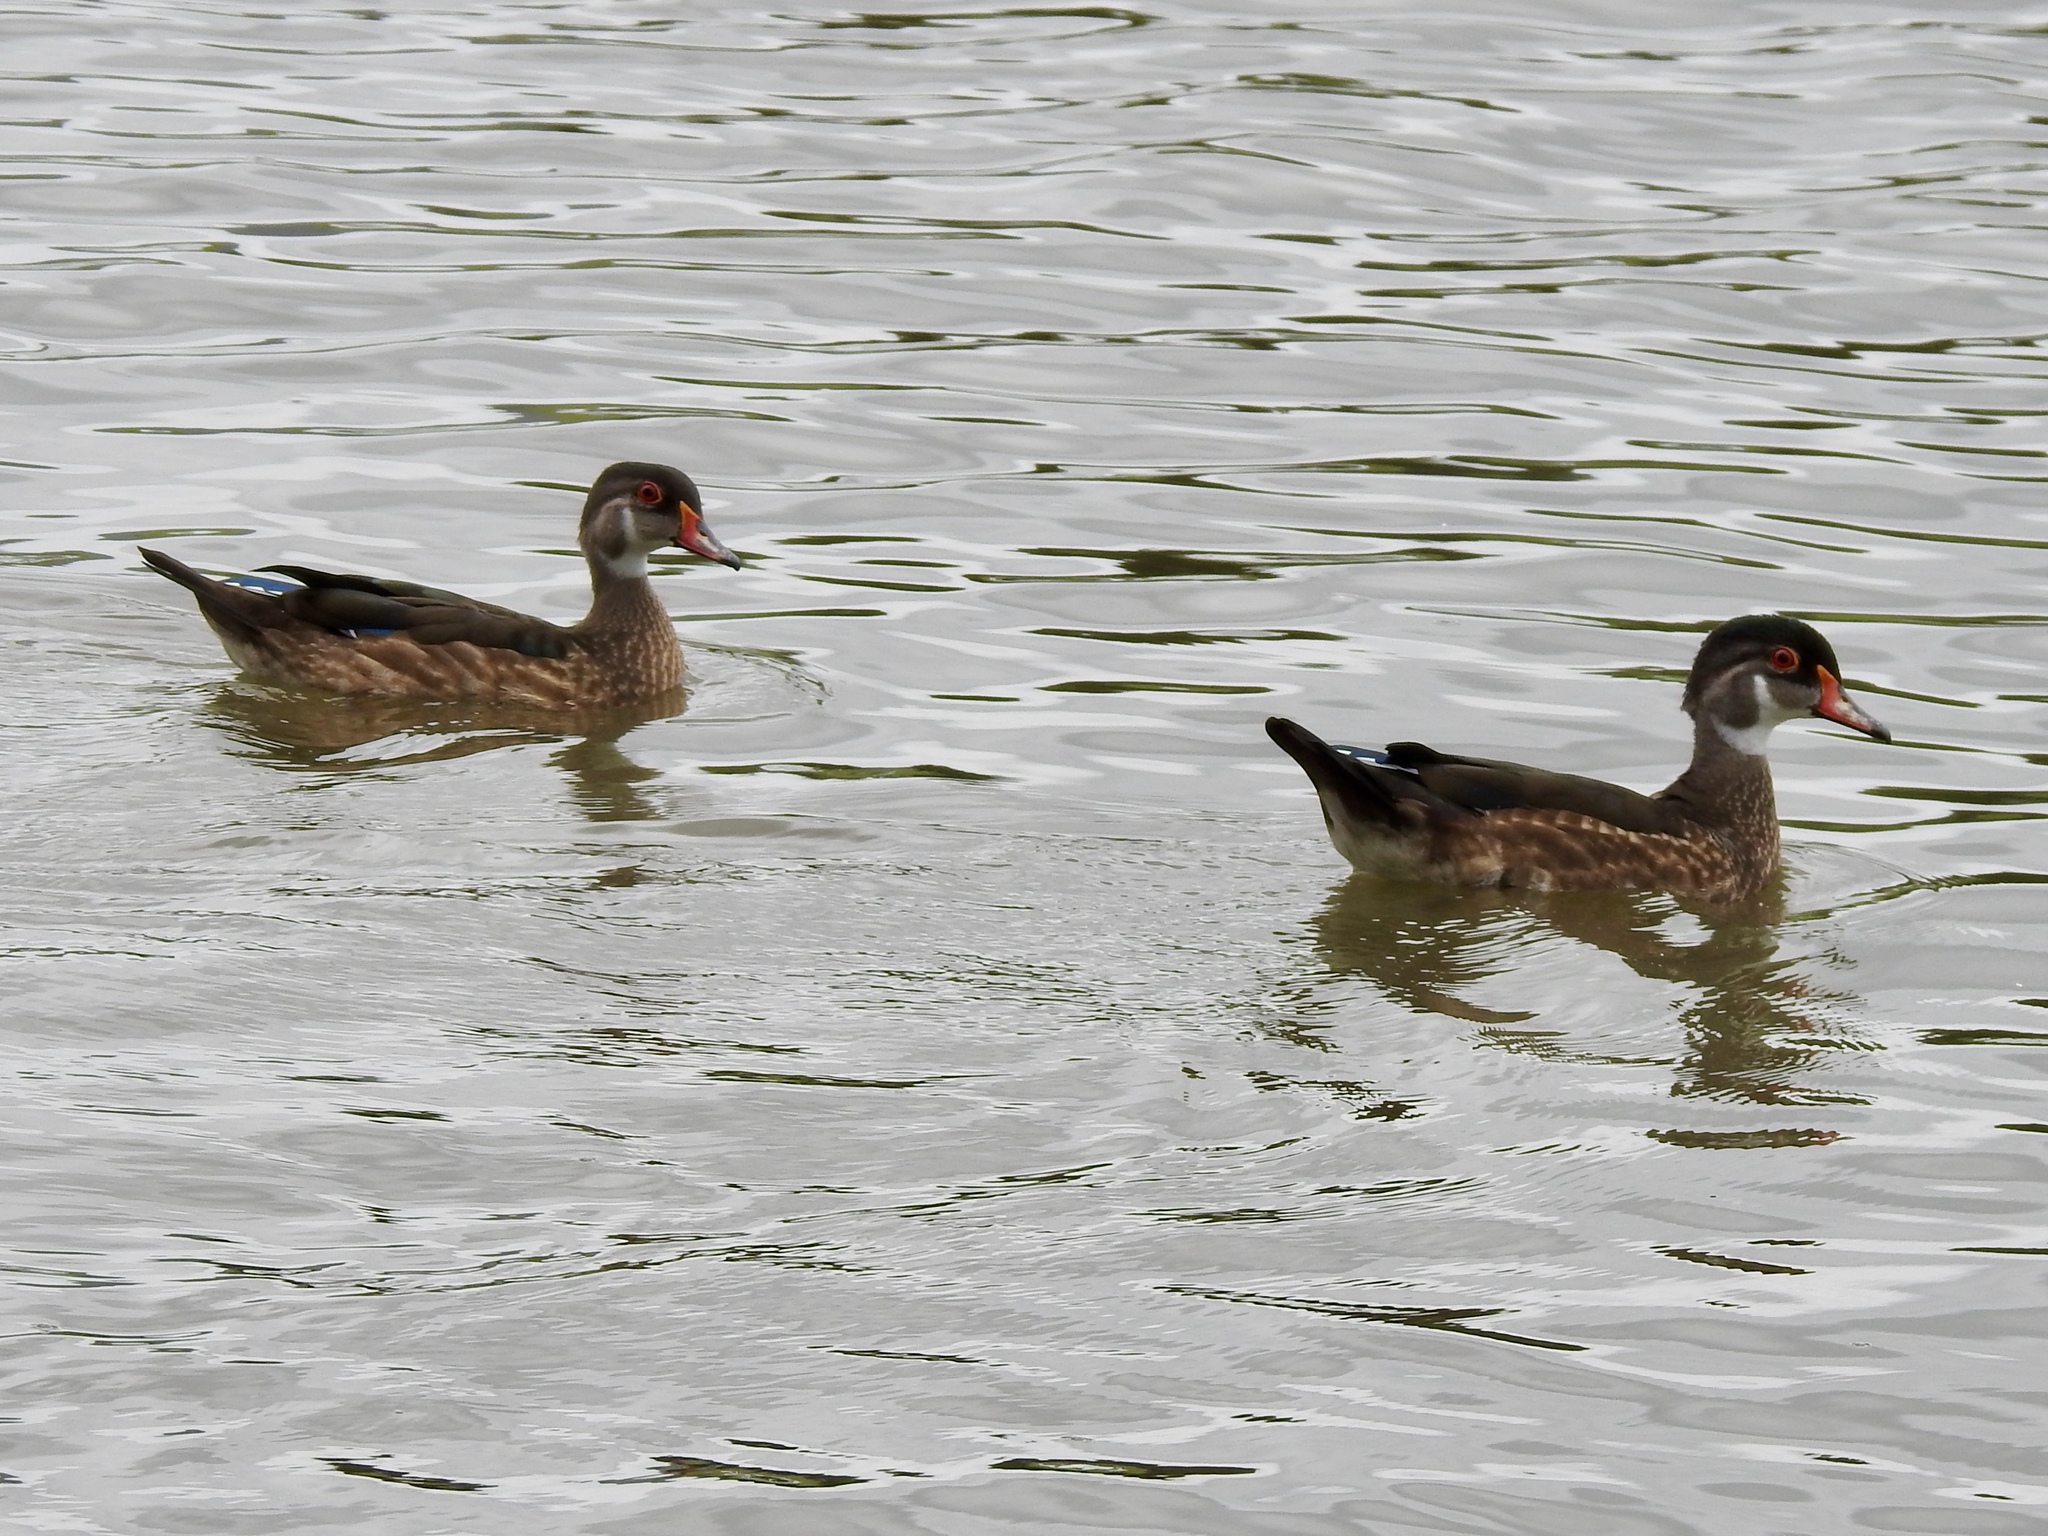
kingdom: Animalia
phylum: Chordata
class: Aves
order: Anseriformes
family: Anatidae
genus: Aix
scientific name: Aix sponsa
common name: Wood duck
